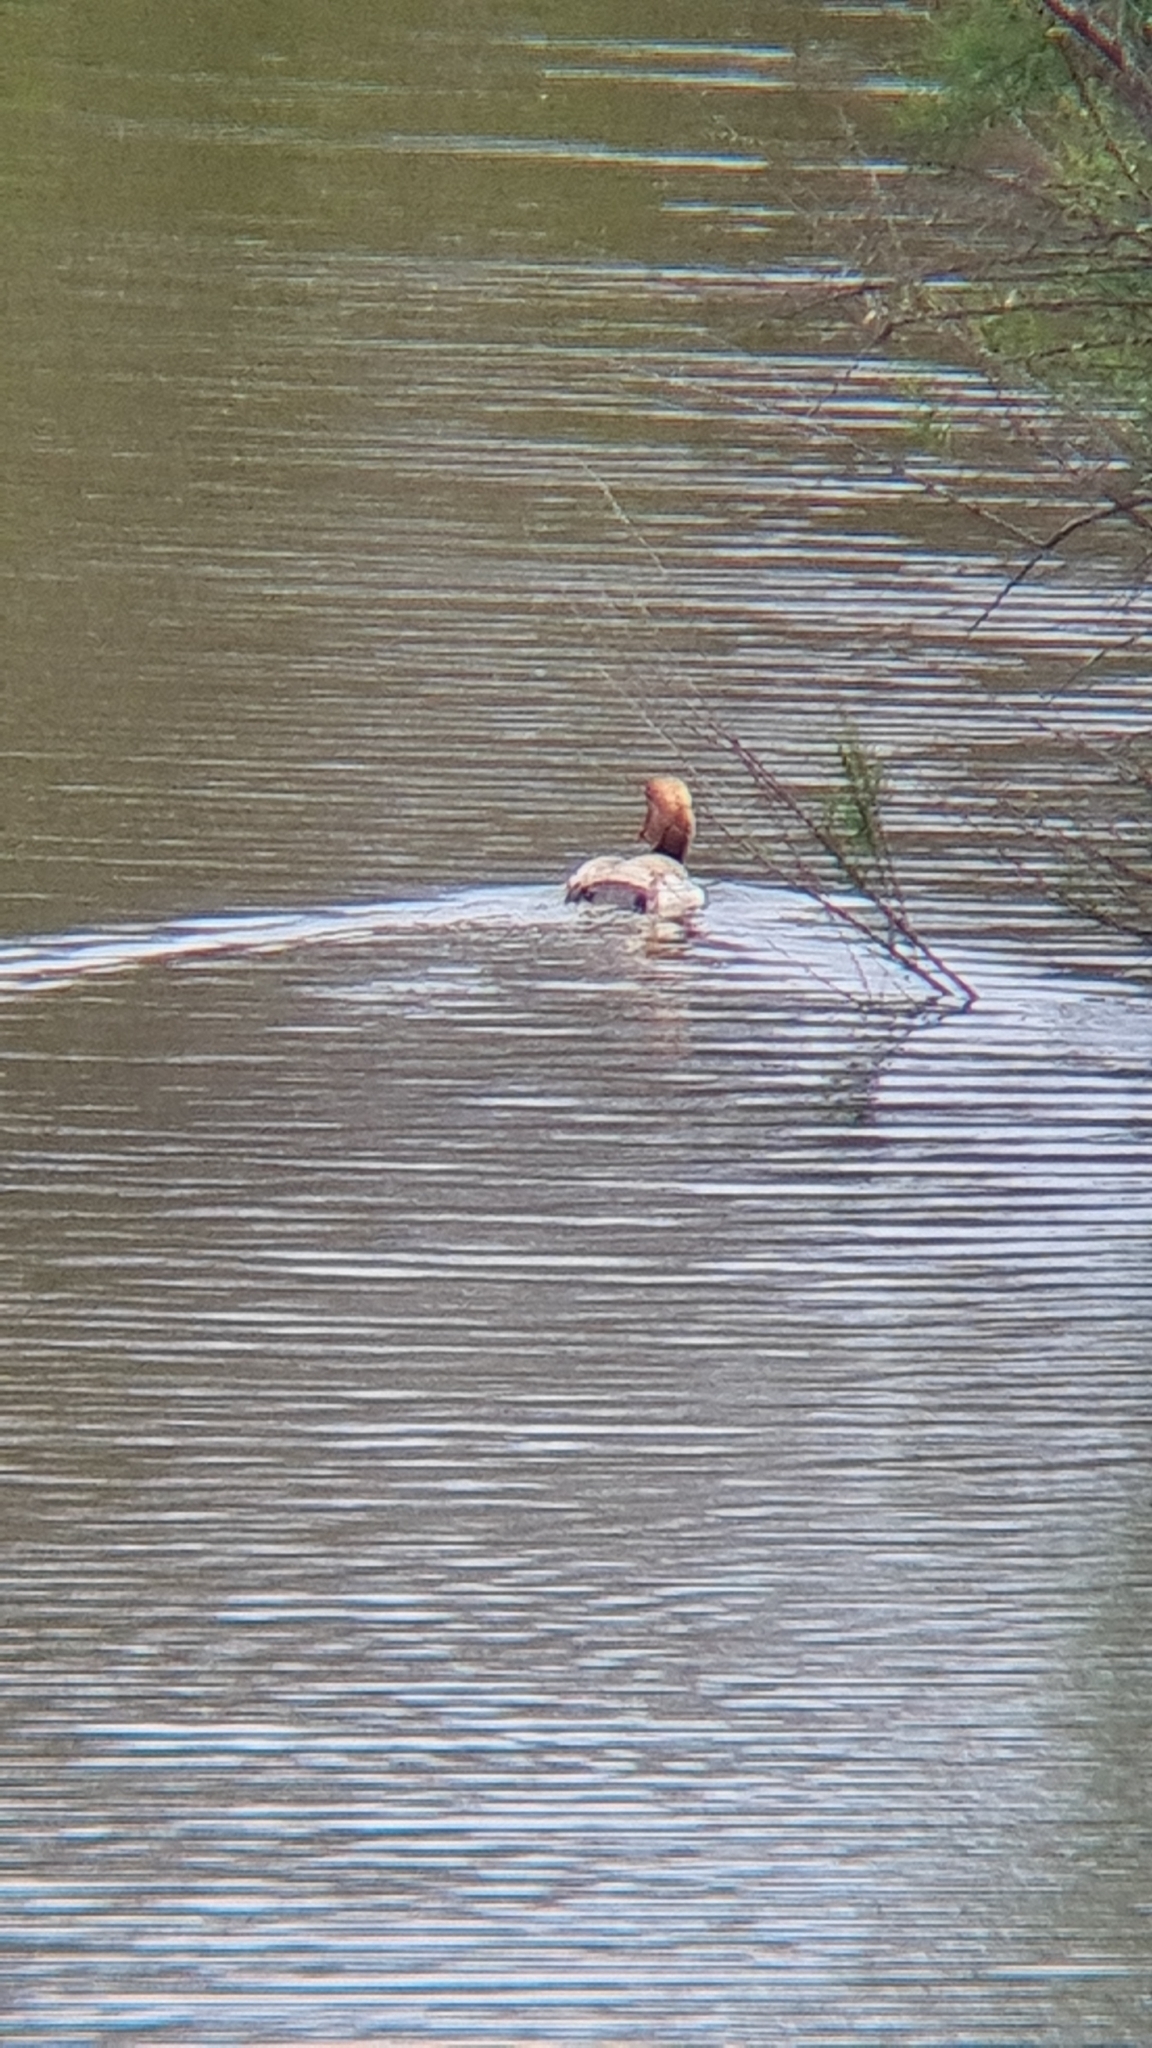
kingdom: Animalia
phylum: Chordata
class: Aves
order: Anseriformes
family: Anatidae
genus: Netta
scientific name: Netta rufina
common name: Red-crested pochard
